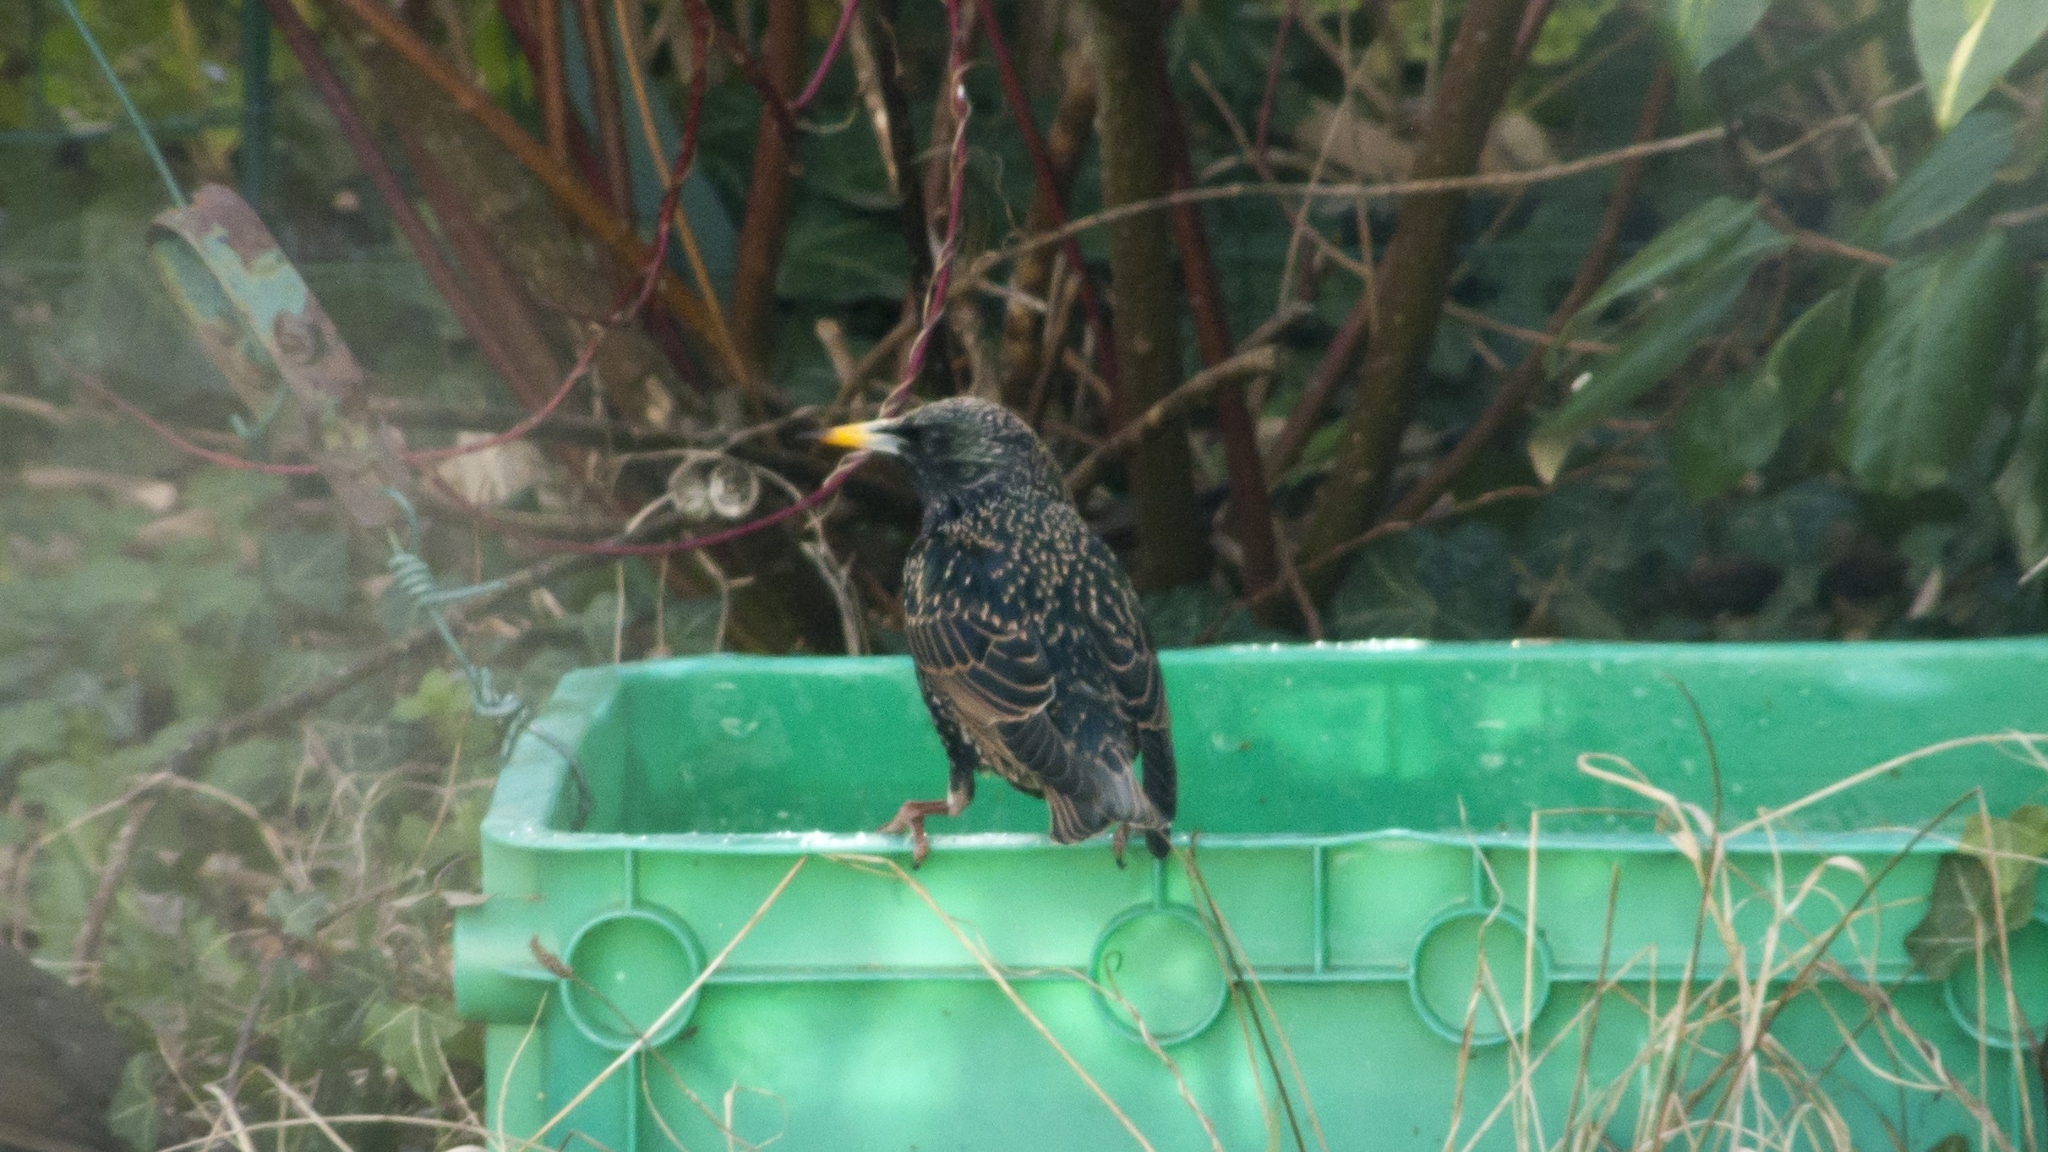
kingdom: Animalia
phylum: Chordata
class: Aves
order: Passeriformes
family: Sturnidae
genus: Sturnus
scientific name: Sturnus vulgaris
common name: Common starling
